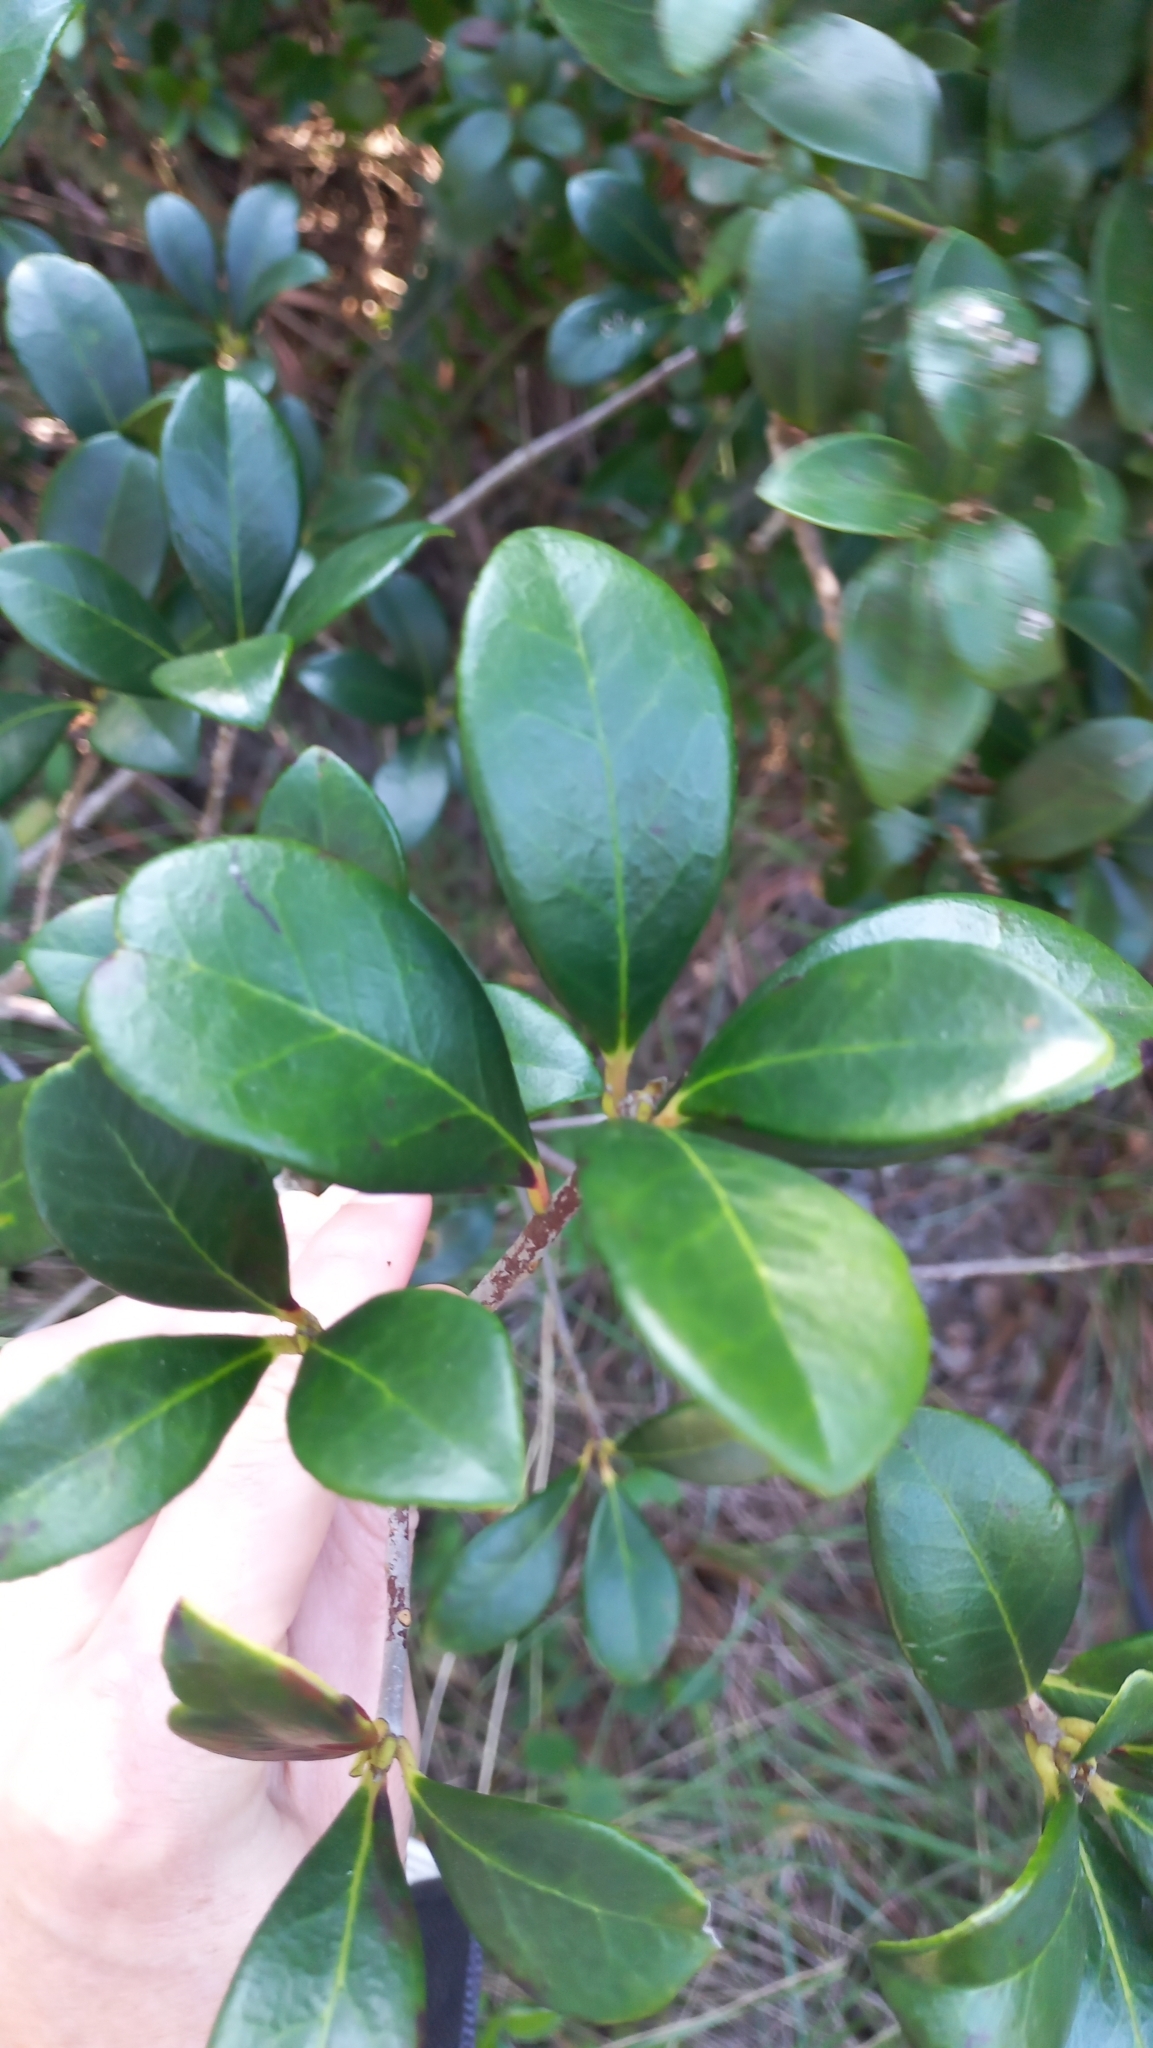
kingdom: Plantae
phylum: Tracheophyta
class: Magnoliopsida
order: Ericales
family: Pentaphylacaceae
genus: Ternstroemia
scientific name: Ternstroemia brasiliensis
